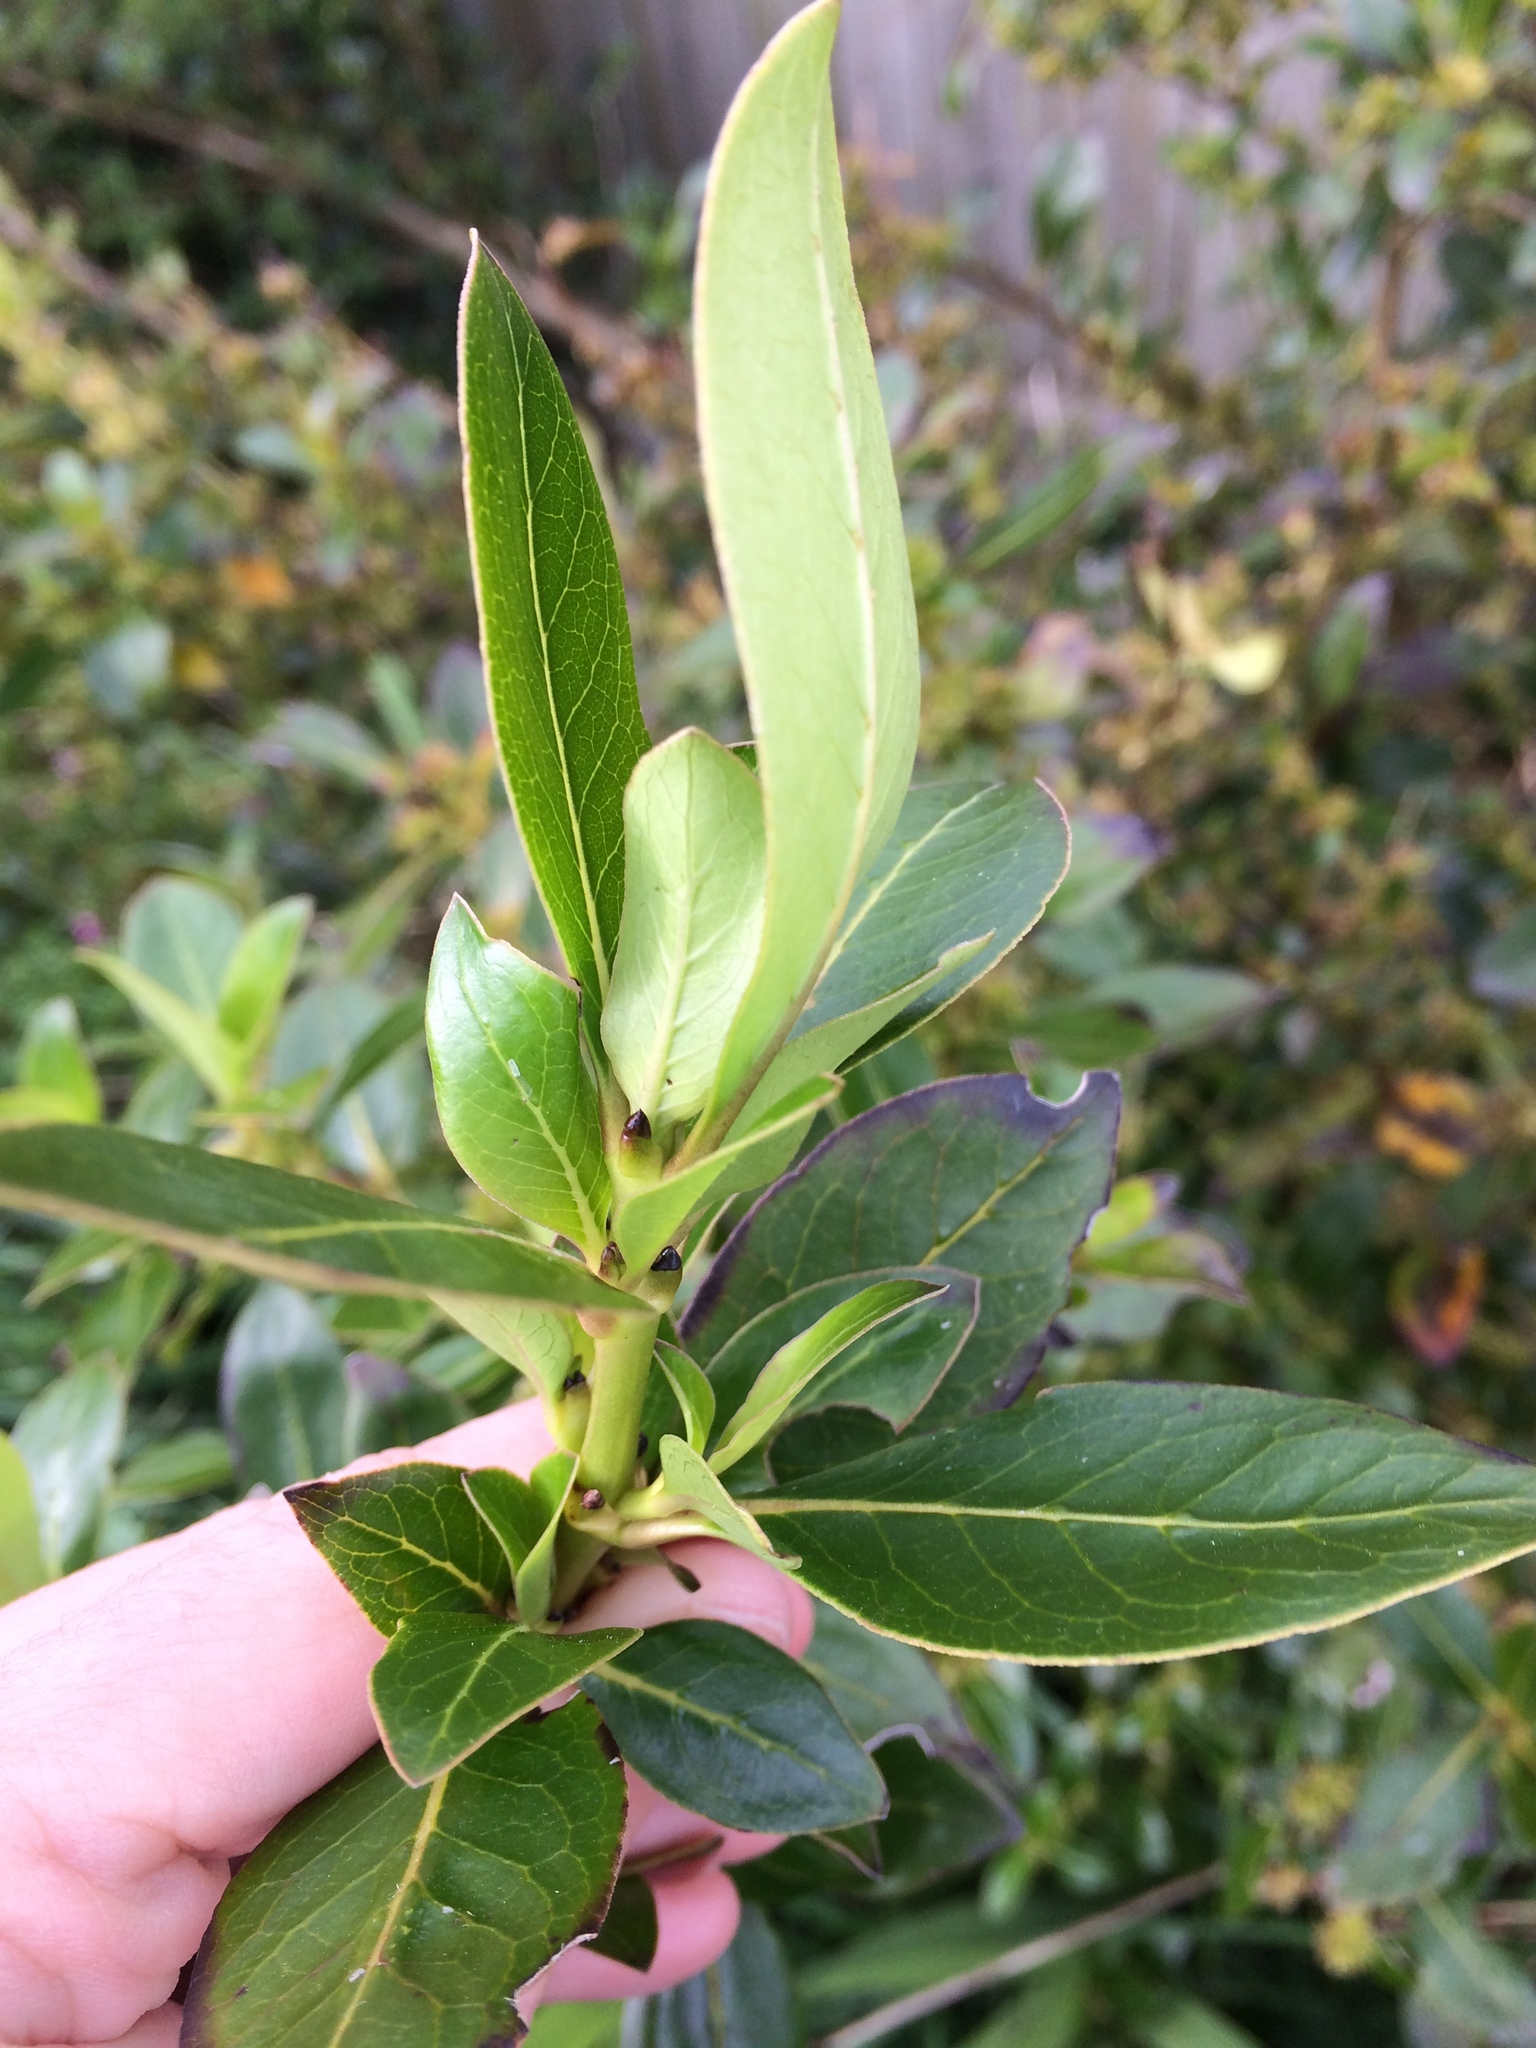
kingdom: Plantae
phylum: Tracheophyta
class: Magnoliopsida
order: Gentianales
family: Rubiaceae
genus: Coprosma
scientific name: Coprosma robusta
